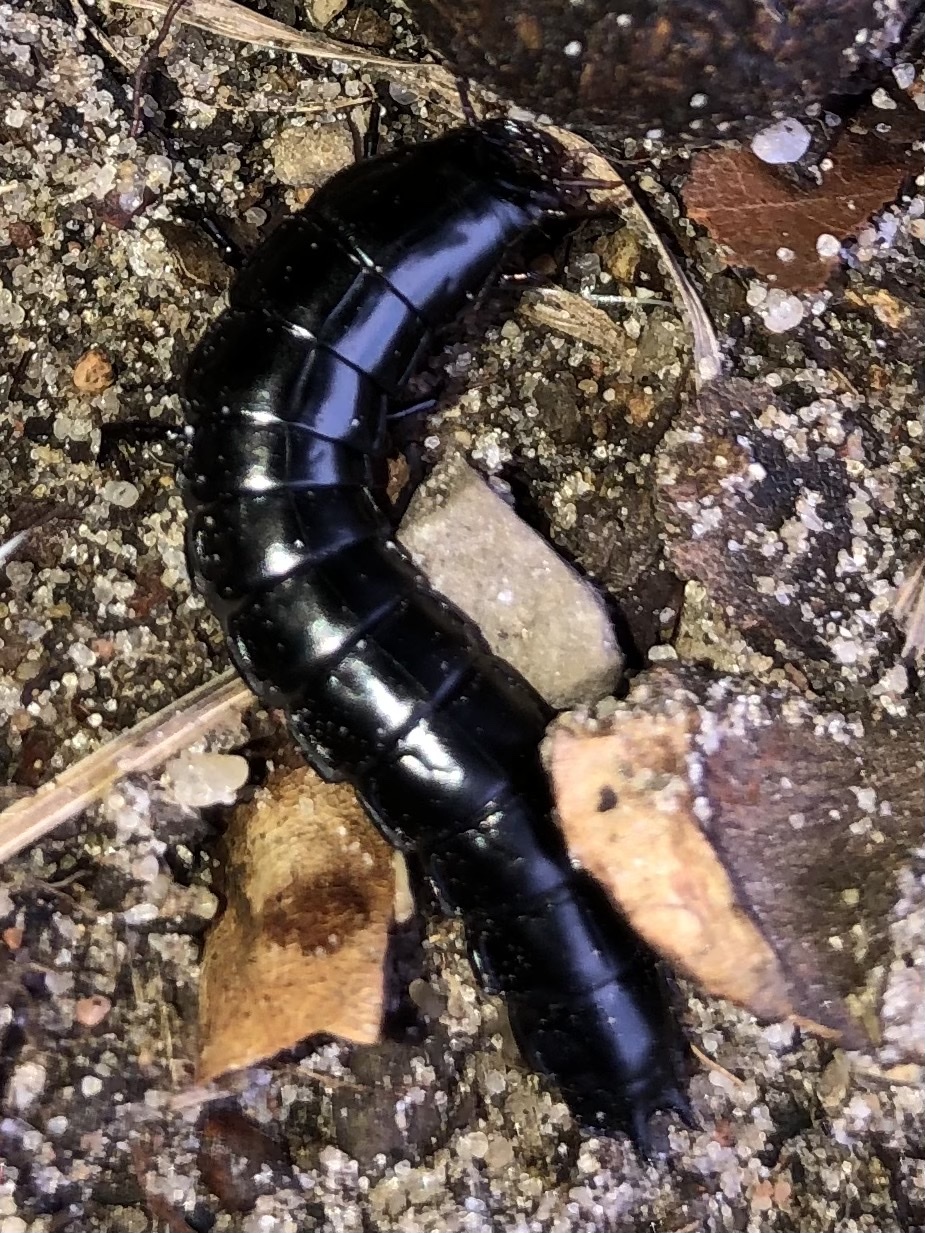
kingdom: Animalia
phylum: Arthropoda
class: Insecta
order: Coleoptera
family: Carabidae
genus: Carabus
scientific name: Carabus
